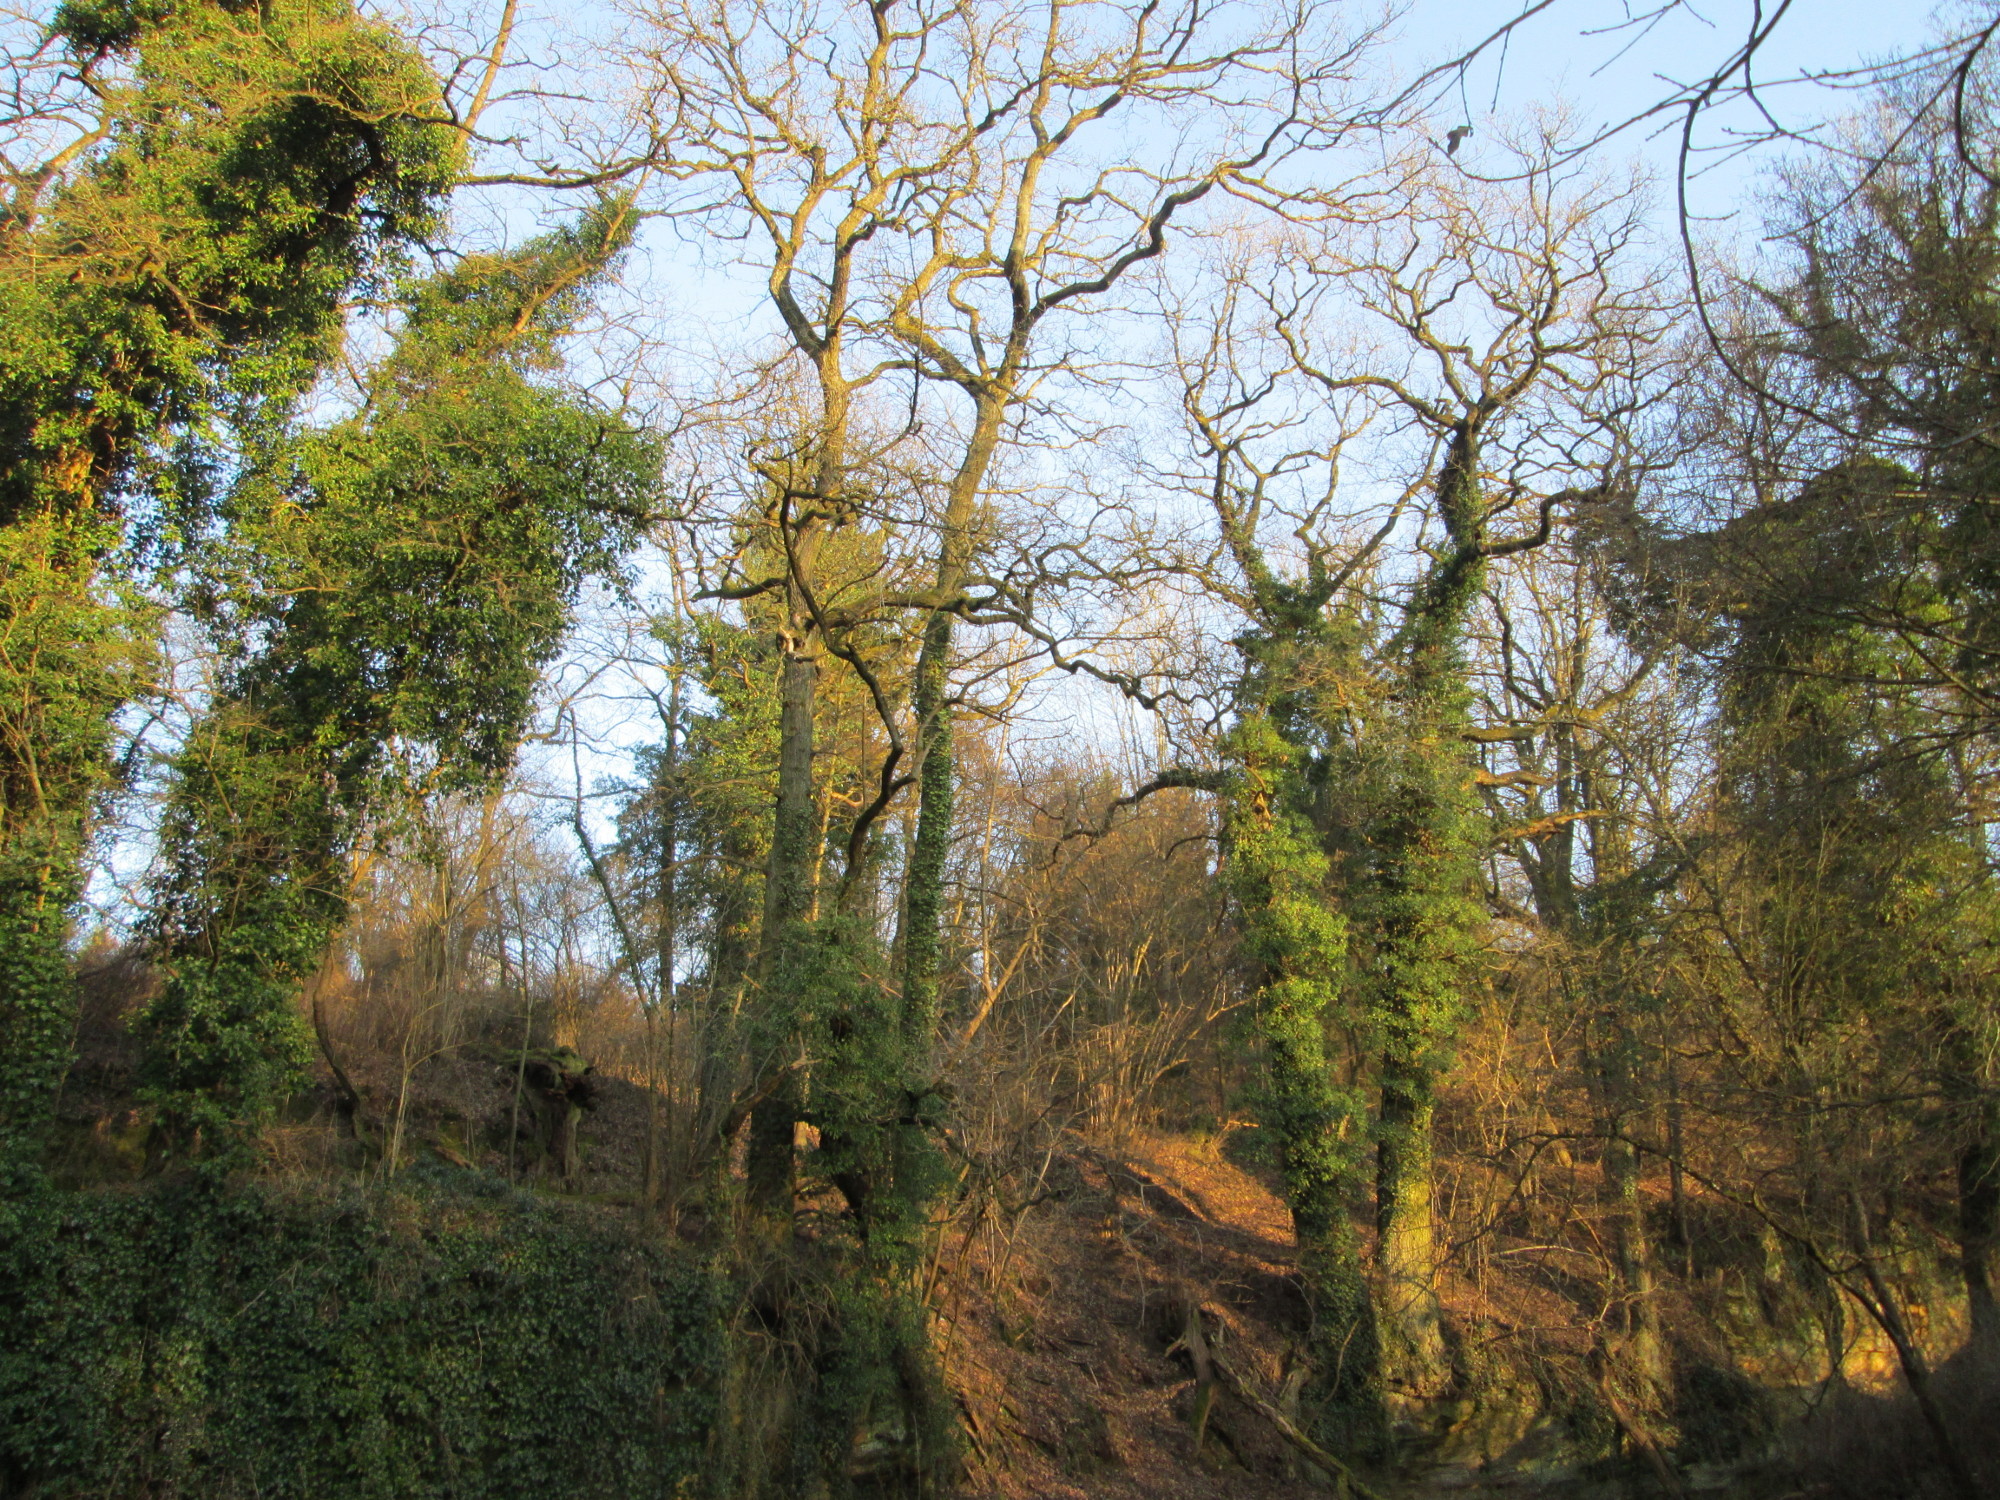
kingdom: Plantae
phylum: Tracheophyta
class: Magnoliopsida
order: Apiales
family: Araliaceae
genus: Hedera
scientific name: Hedera helix
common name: Ivy
